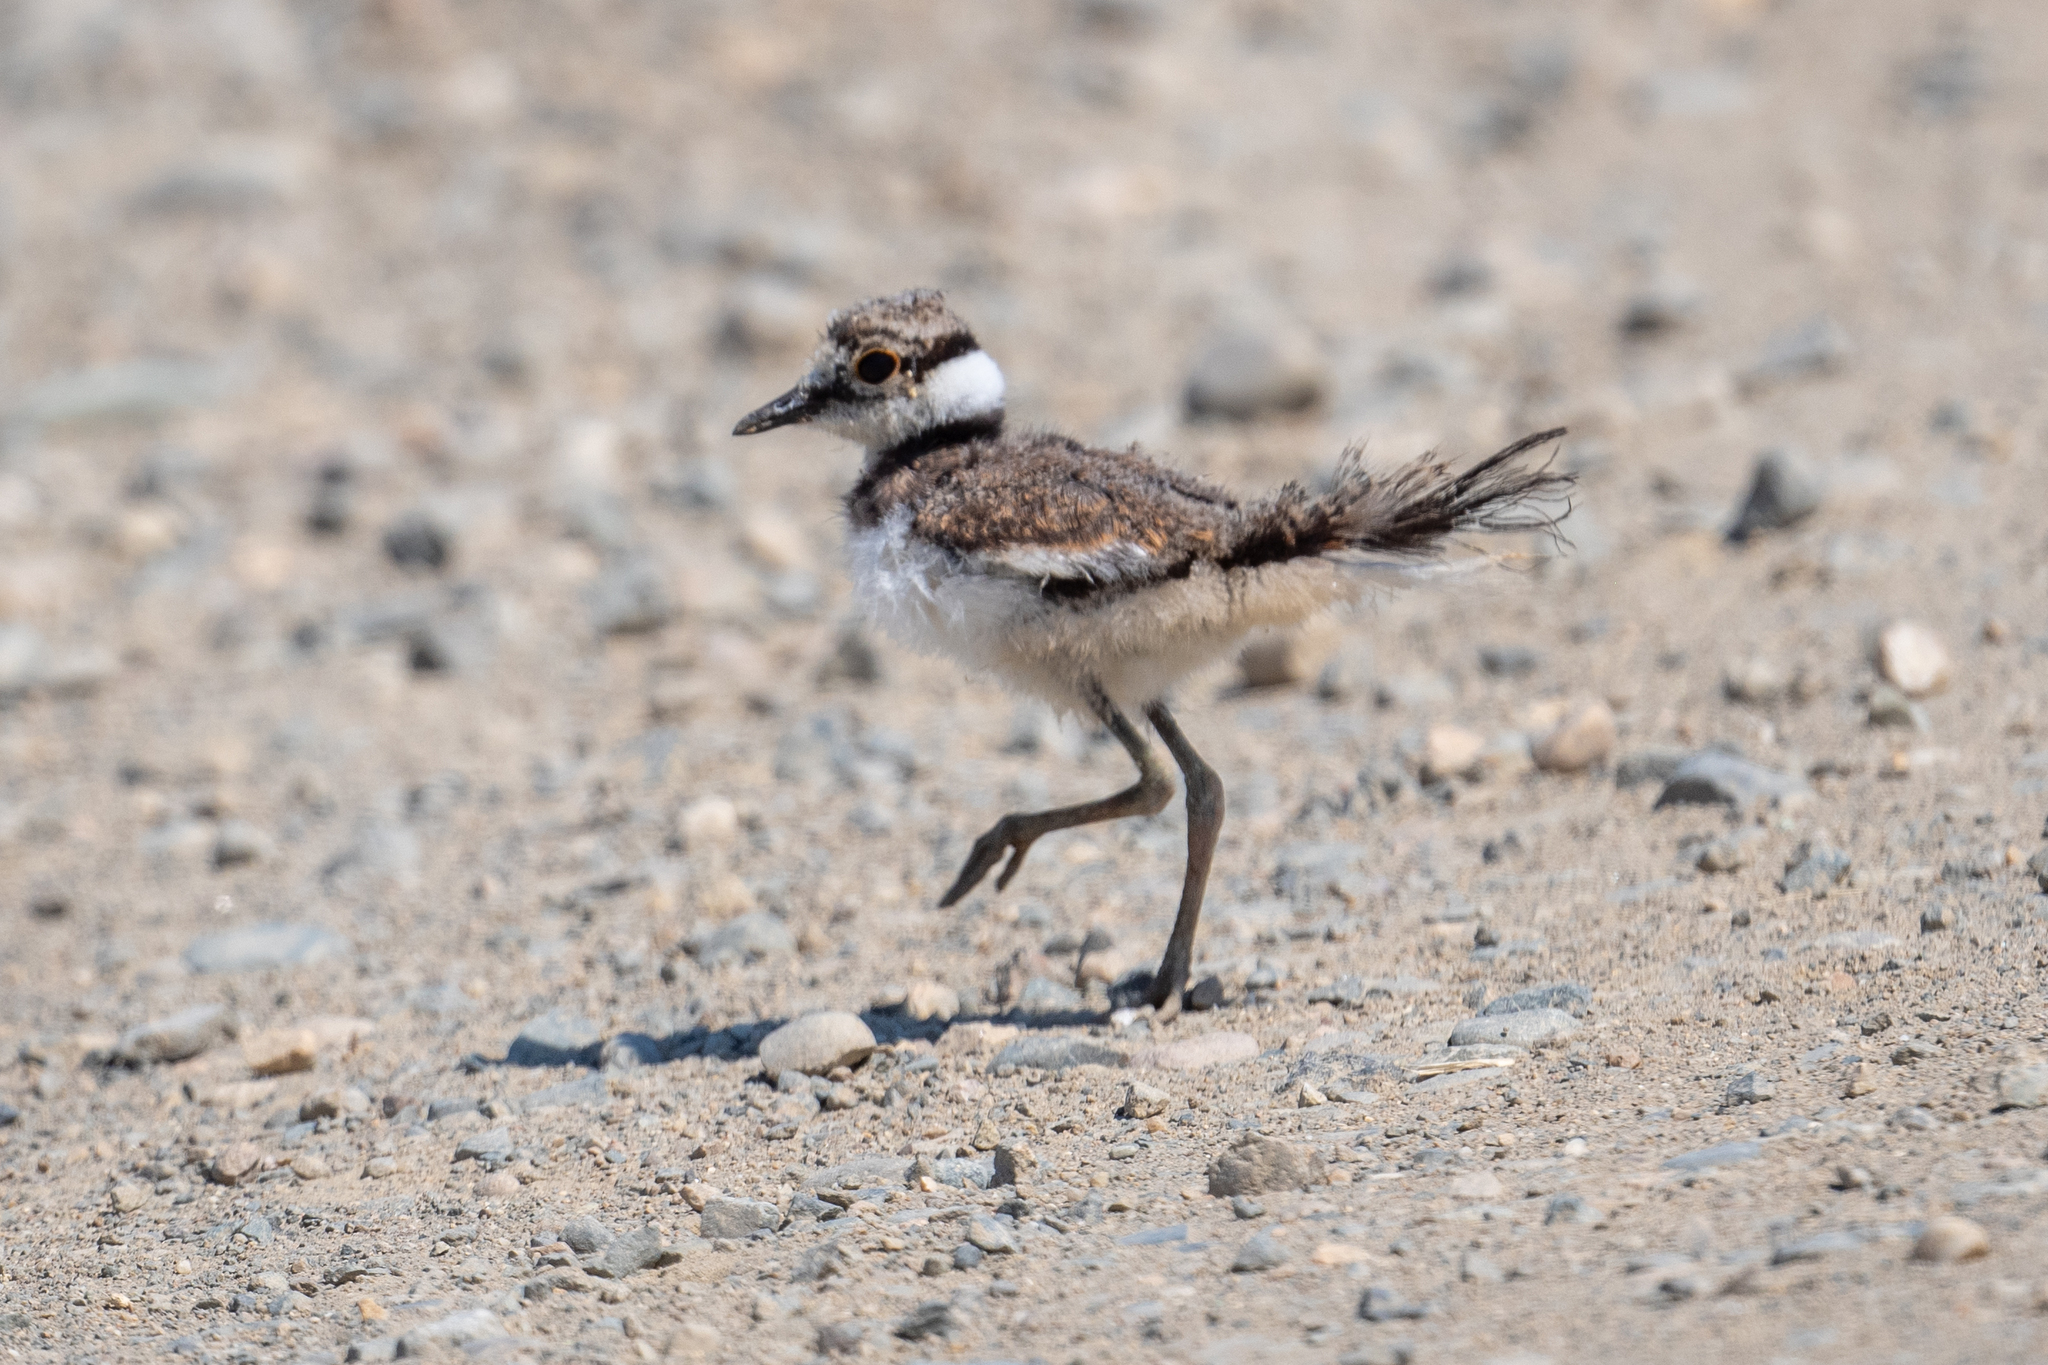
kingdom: Animalia
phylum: Chordata
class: Aves
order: Charadriiformes
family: Charadriidae
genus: Charadrius
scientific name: Charadrius vociferus
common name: Killdeer
